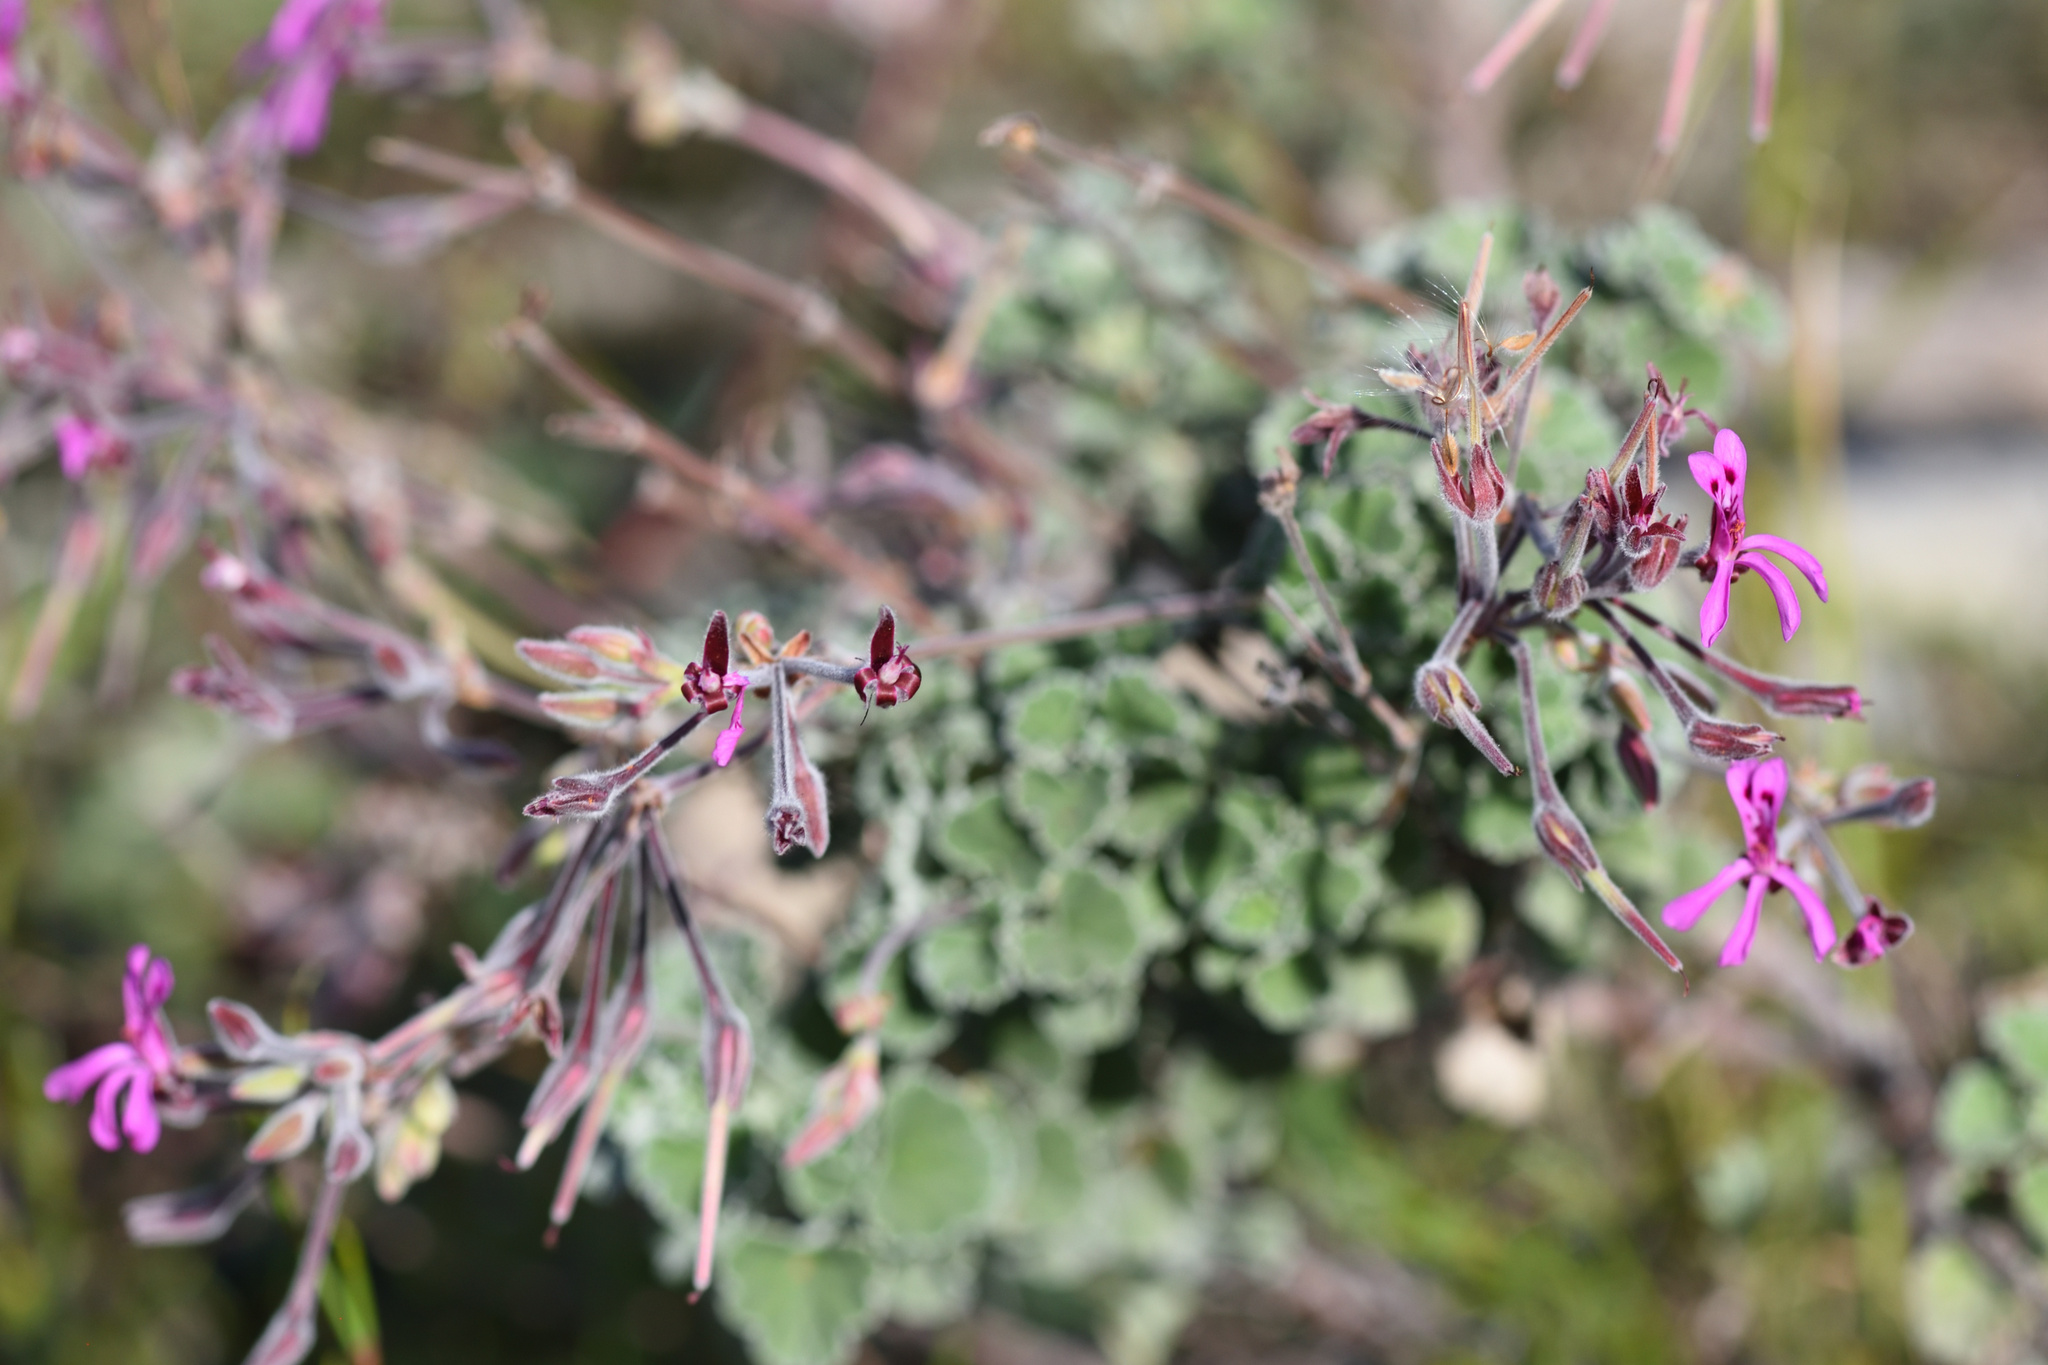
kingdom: Plantae
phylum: Tracheophyta
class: Magnoliopsida
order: Geraniales
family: Geraniaceae
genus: Pelargonium
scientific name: Pelargonium reniforme
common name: Kidney-leaf pelargonium
